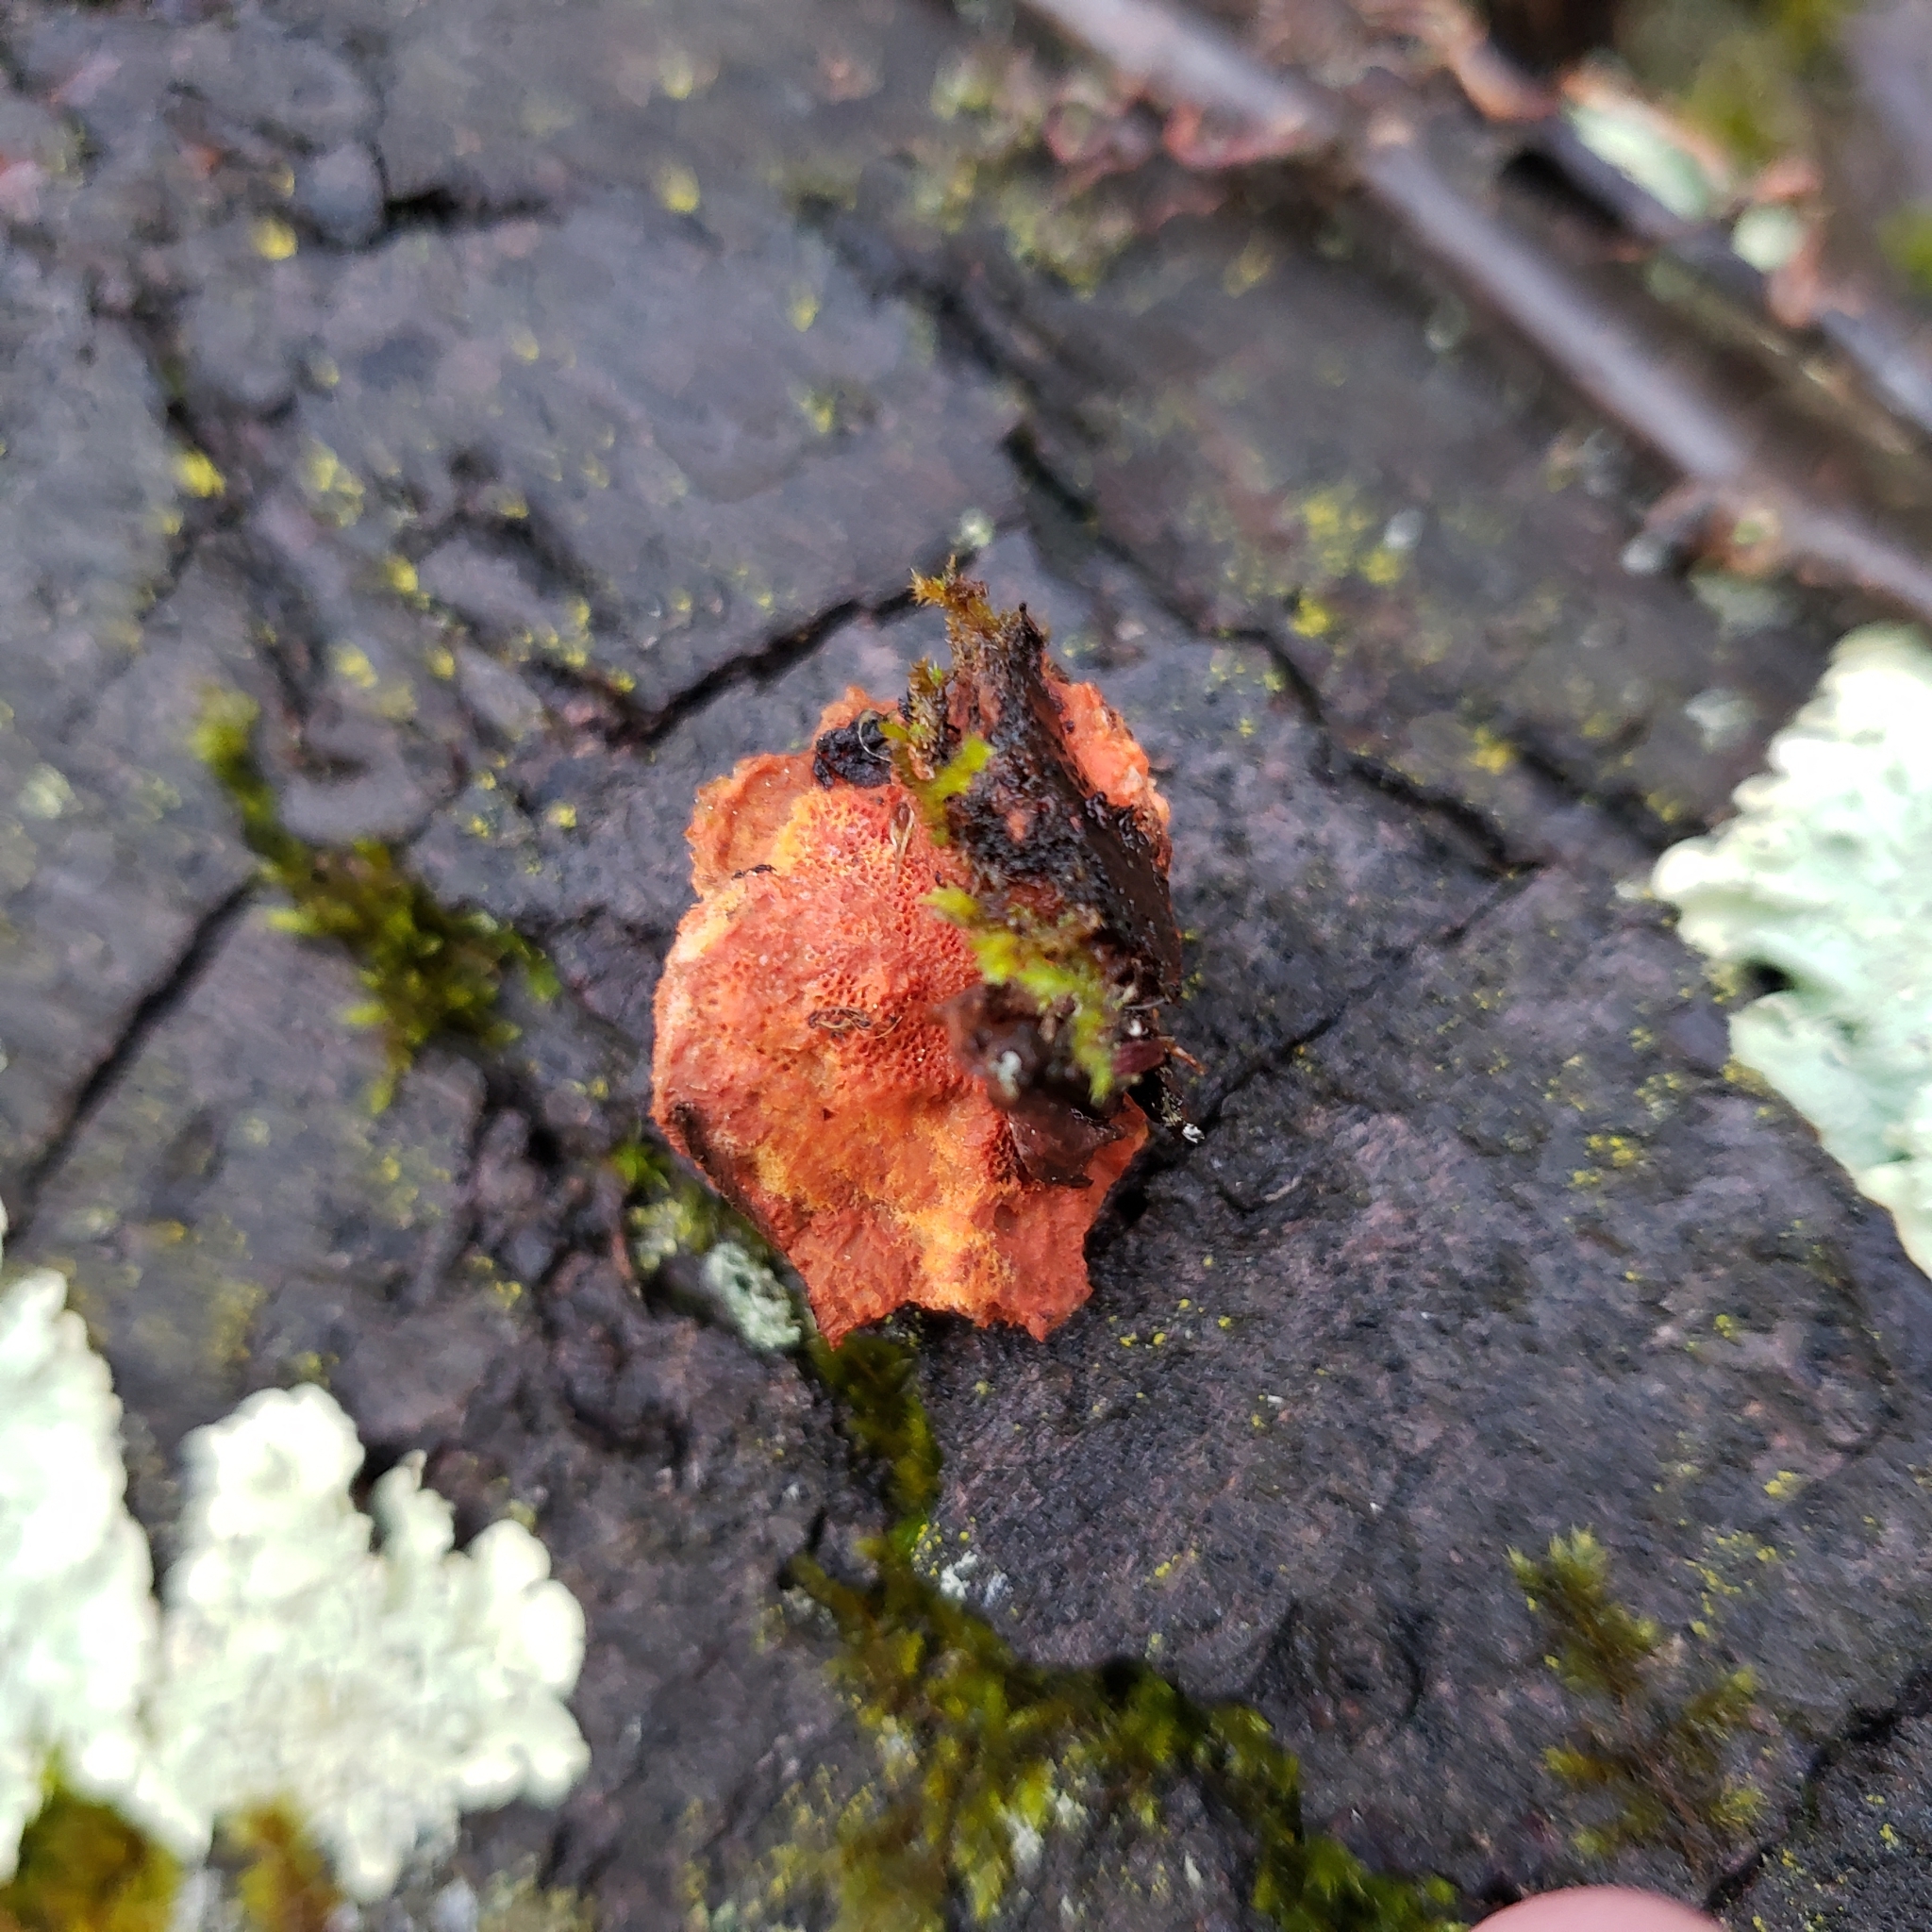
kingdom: Fungi
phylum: Basidiomycota
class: Agaricomycetes
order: Polyporales
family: Polyporaceae
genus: Trametes
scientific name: Trametes cinnabarina
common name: Northern cinnabar polypore
